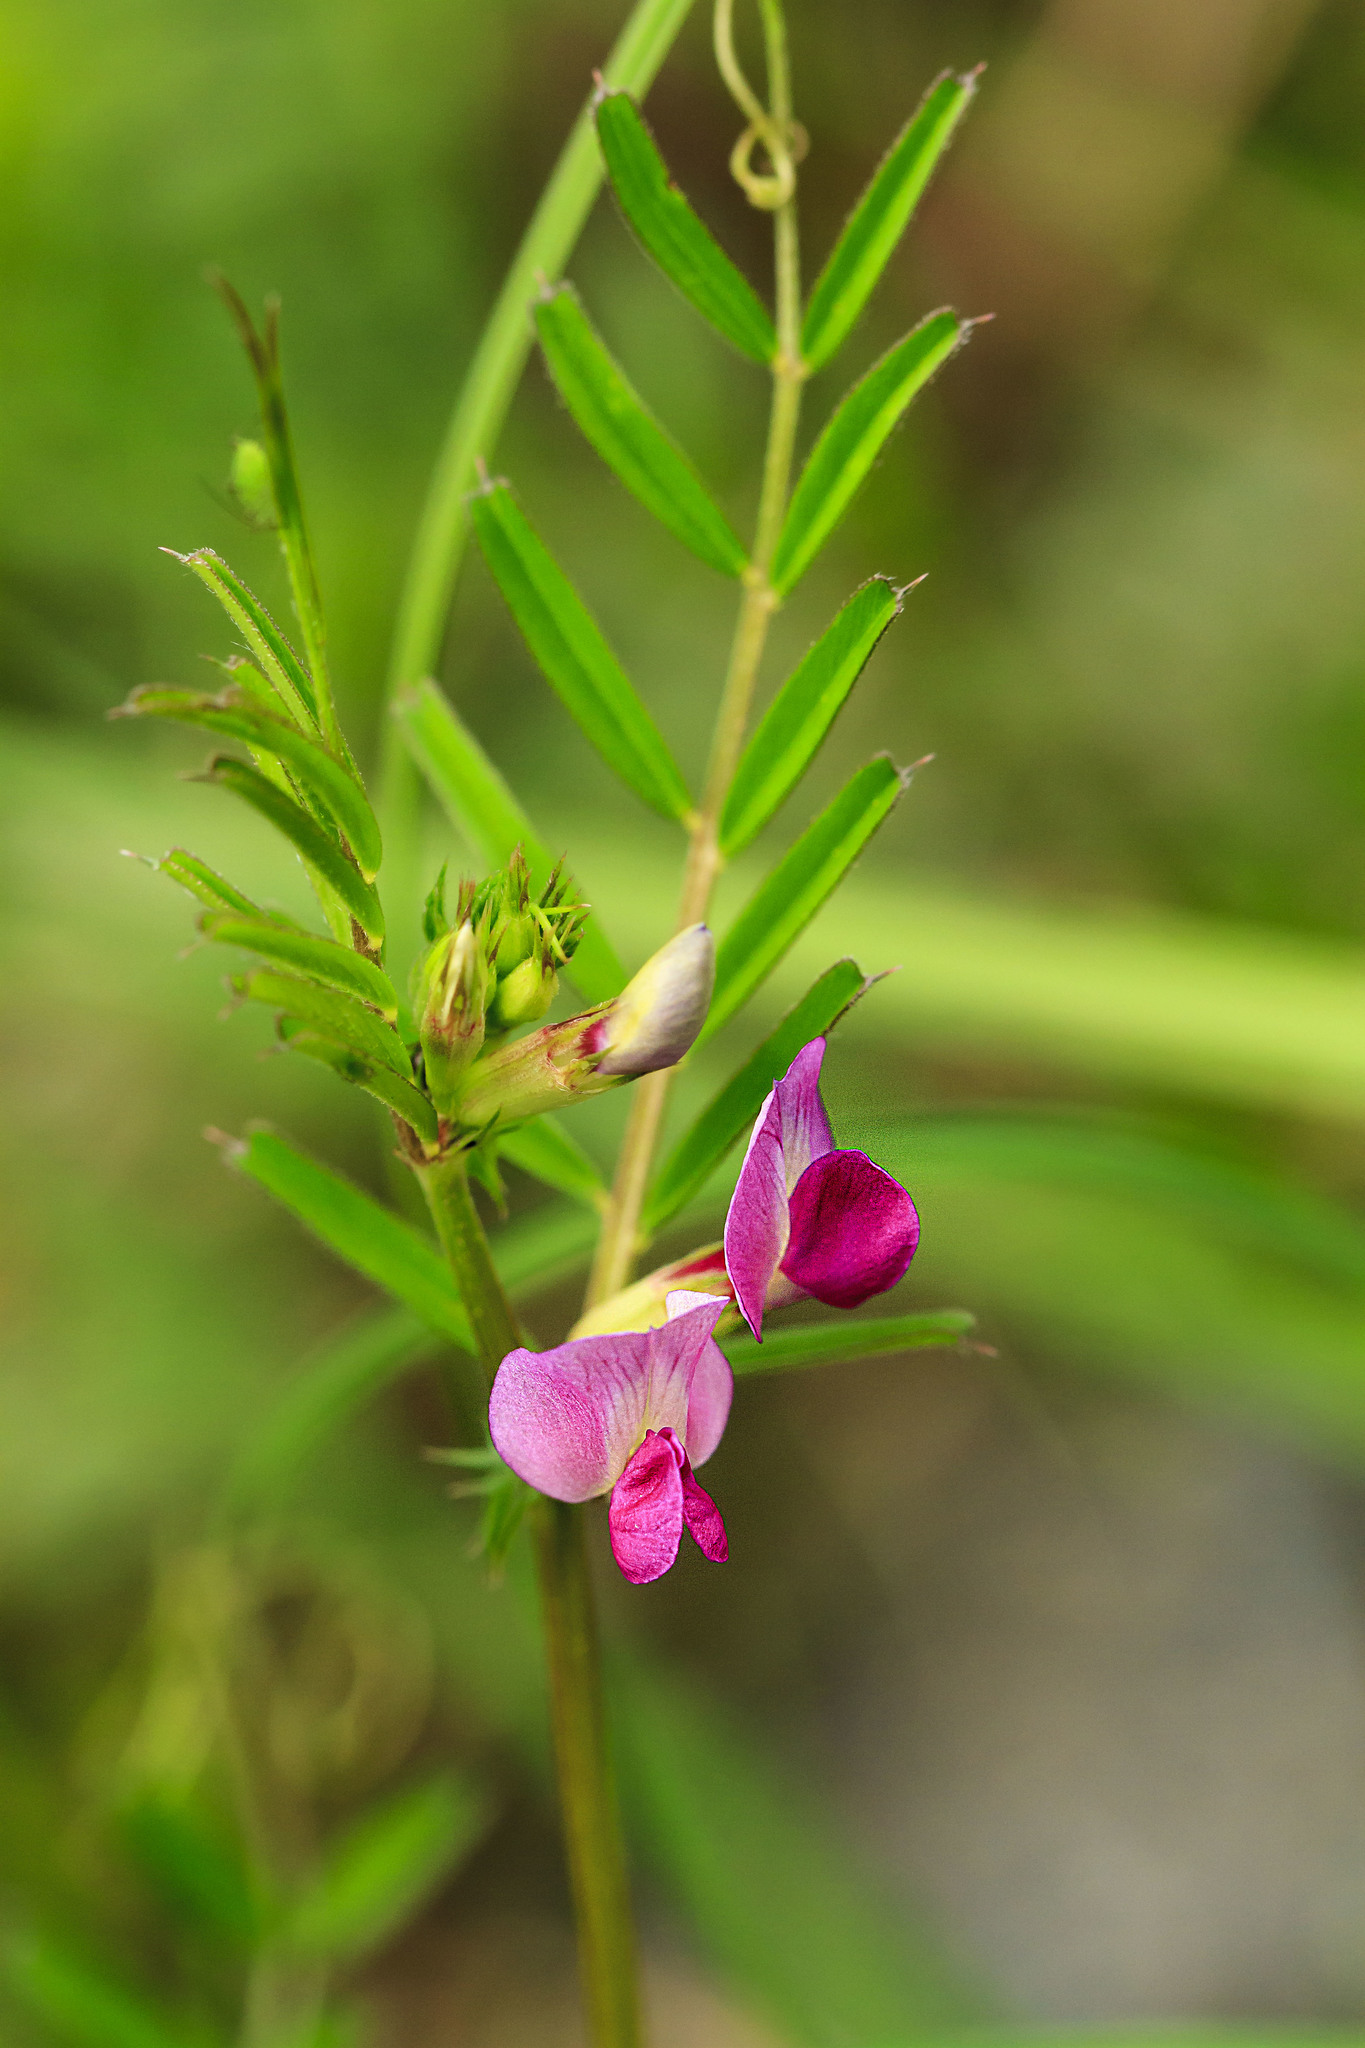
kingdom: Plantae
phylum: Tracheophyta
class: Magnoliopsida
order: Fabales
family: Fabaceae
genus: Vicia
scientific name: Vicia sativa
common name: Garden vetch
